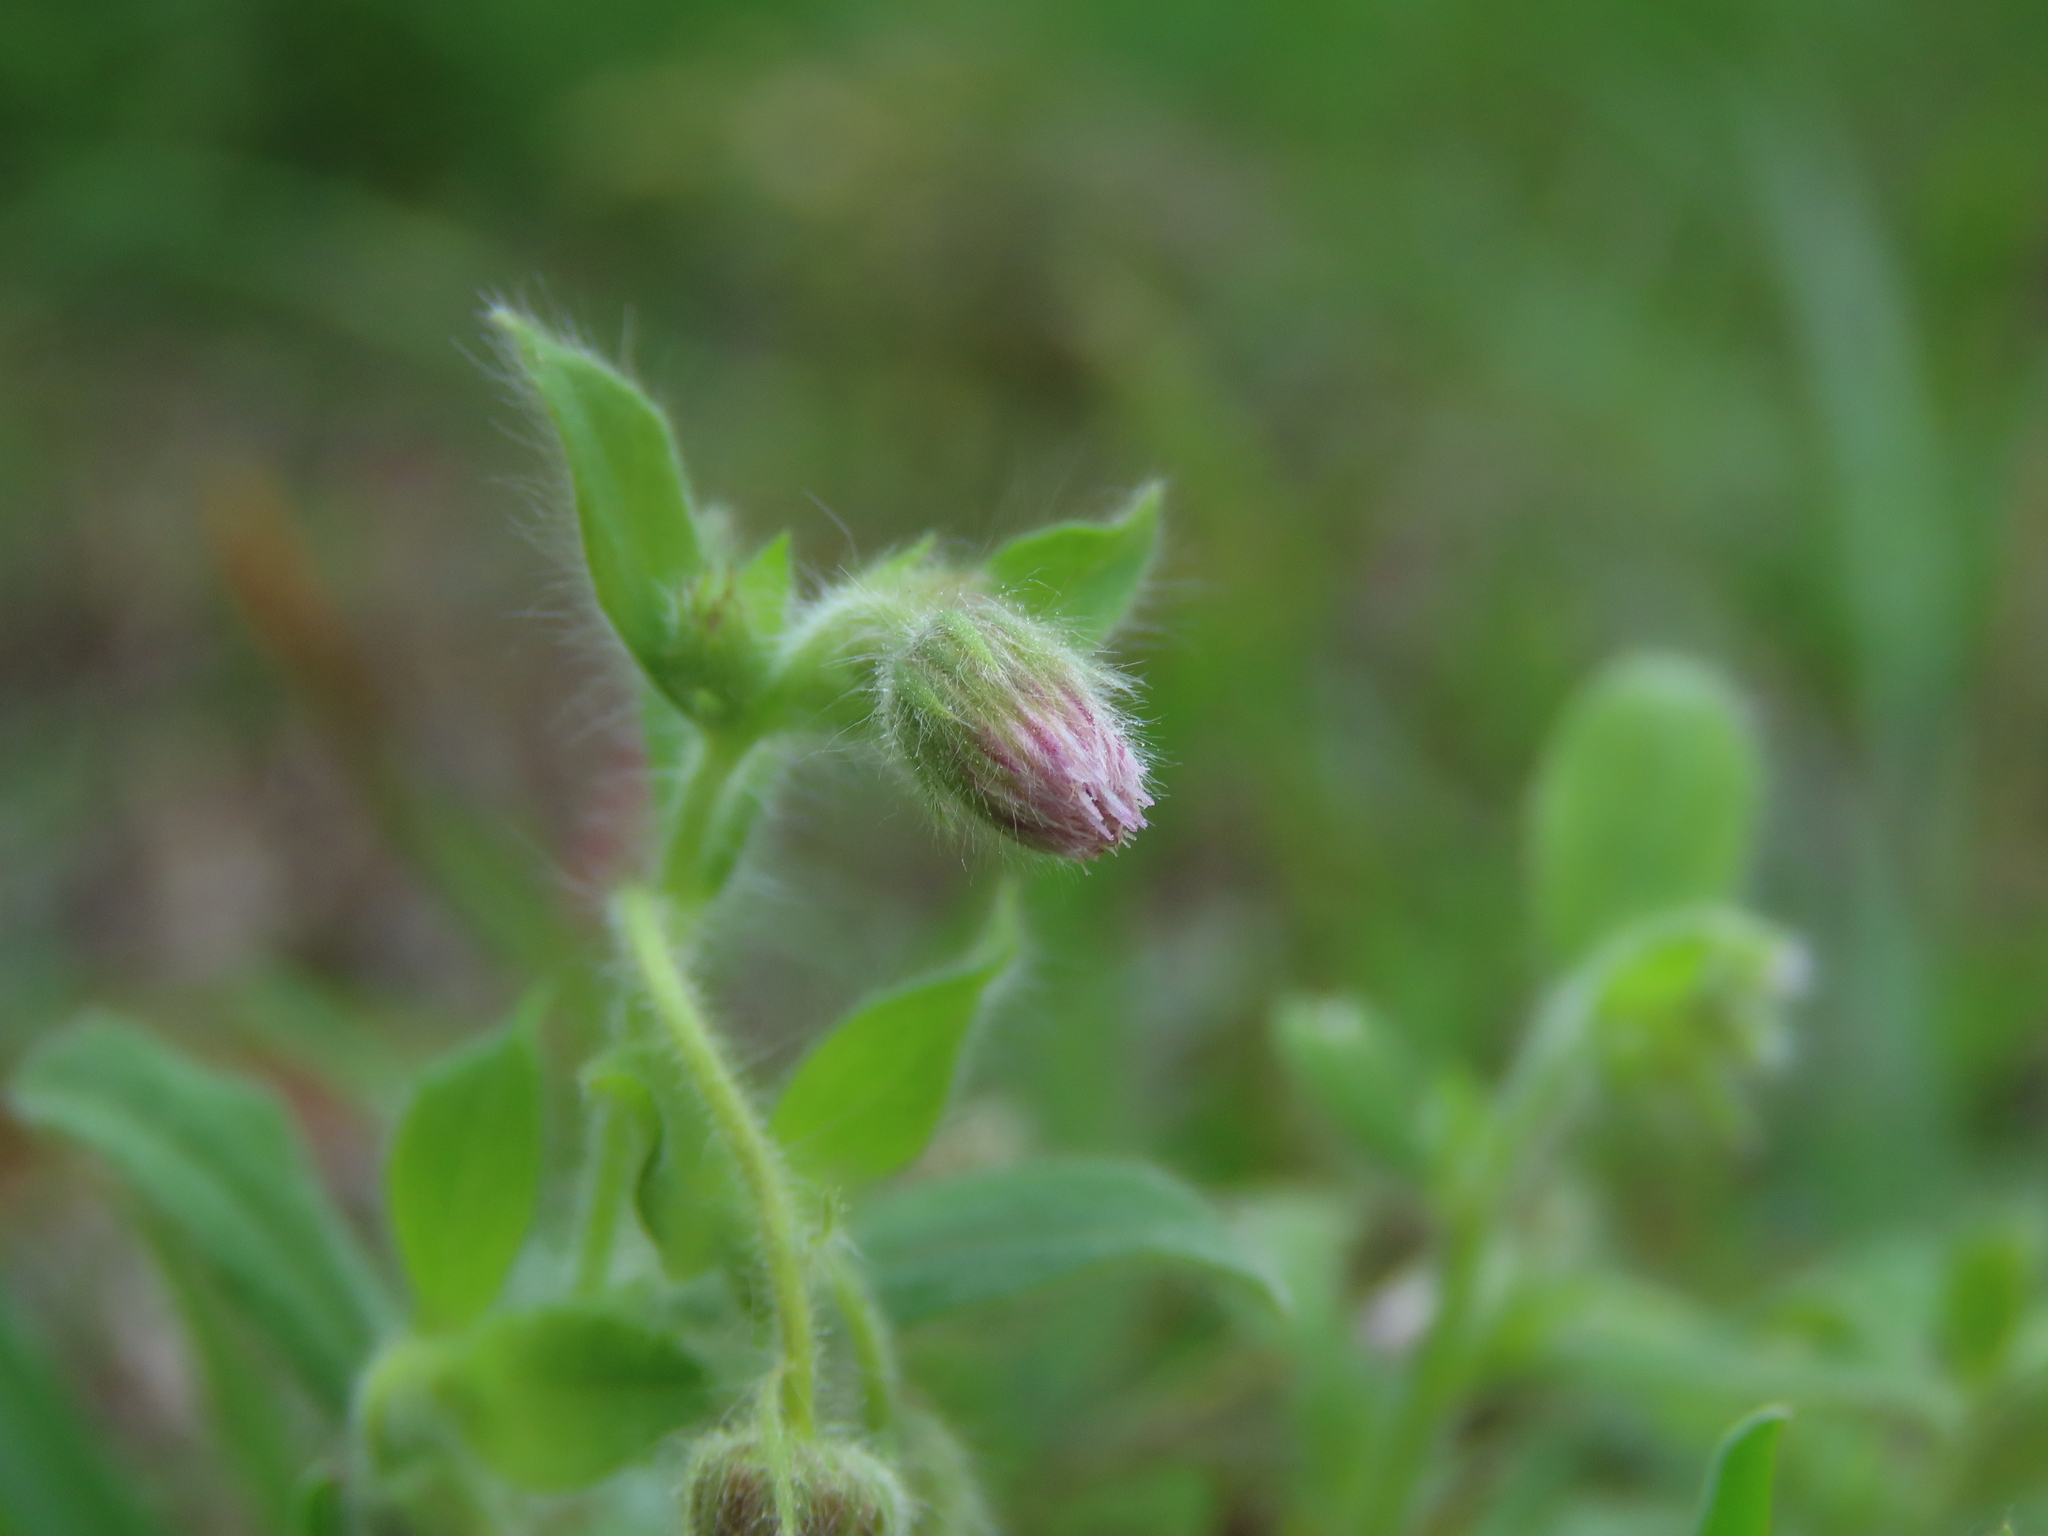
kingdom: Plantae
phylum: Tracheophyta
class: Magnoliopsida
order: Asterales
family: Asteraceae
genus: Blumea
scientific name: Blumea axillaris
